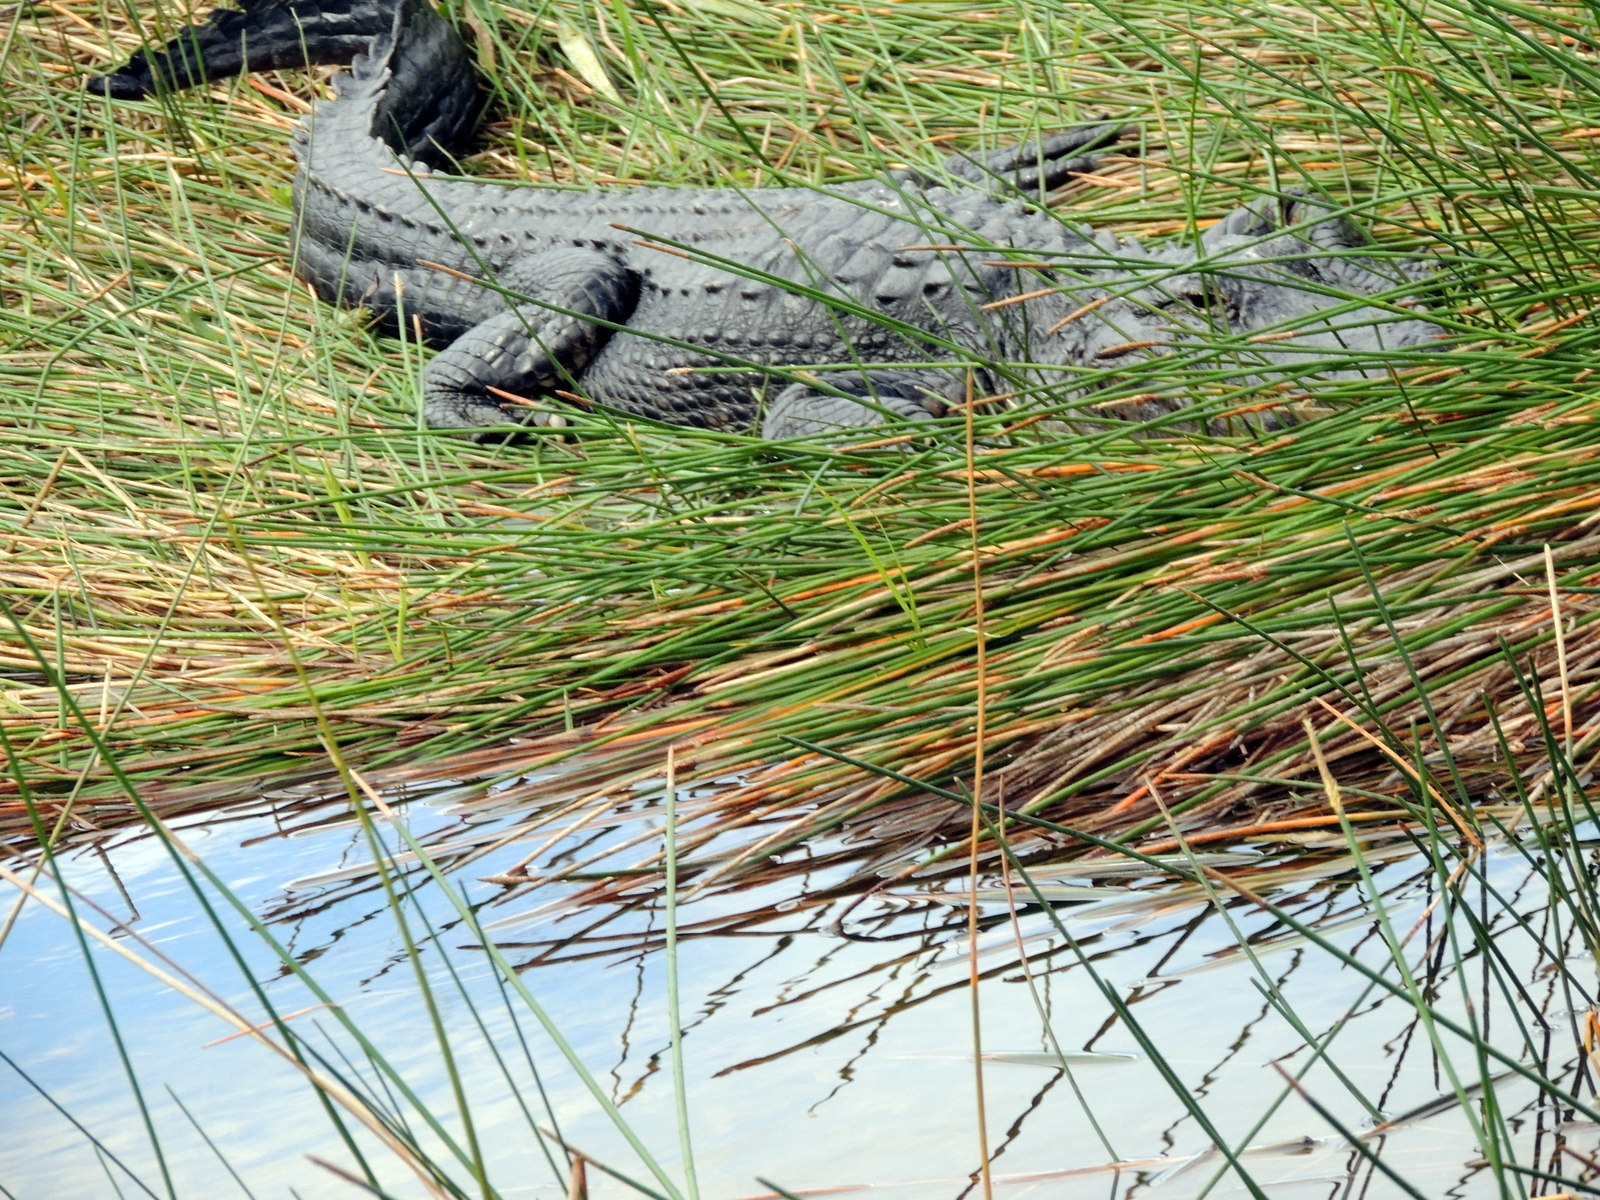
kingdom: Animalia
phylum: Chordata
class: Crocodylia
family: Alligatoridae
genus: Alligator
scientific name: Alligator mississippiensis
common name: American alligator
